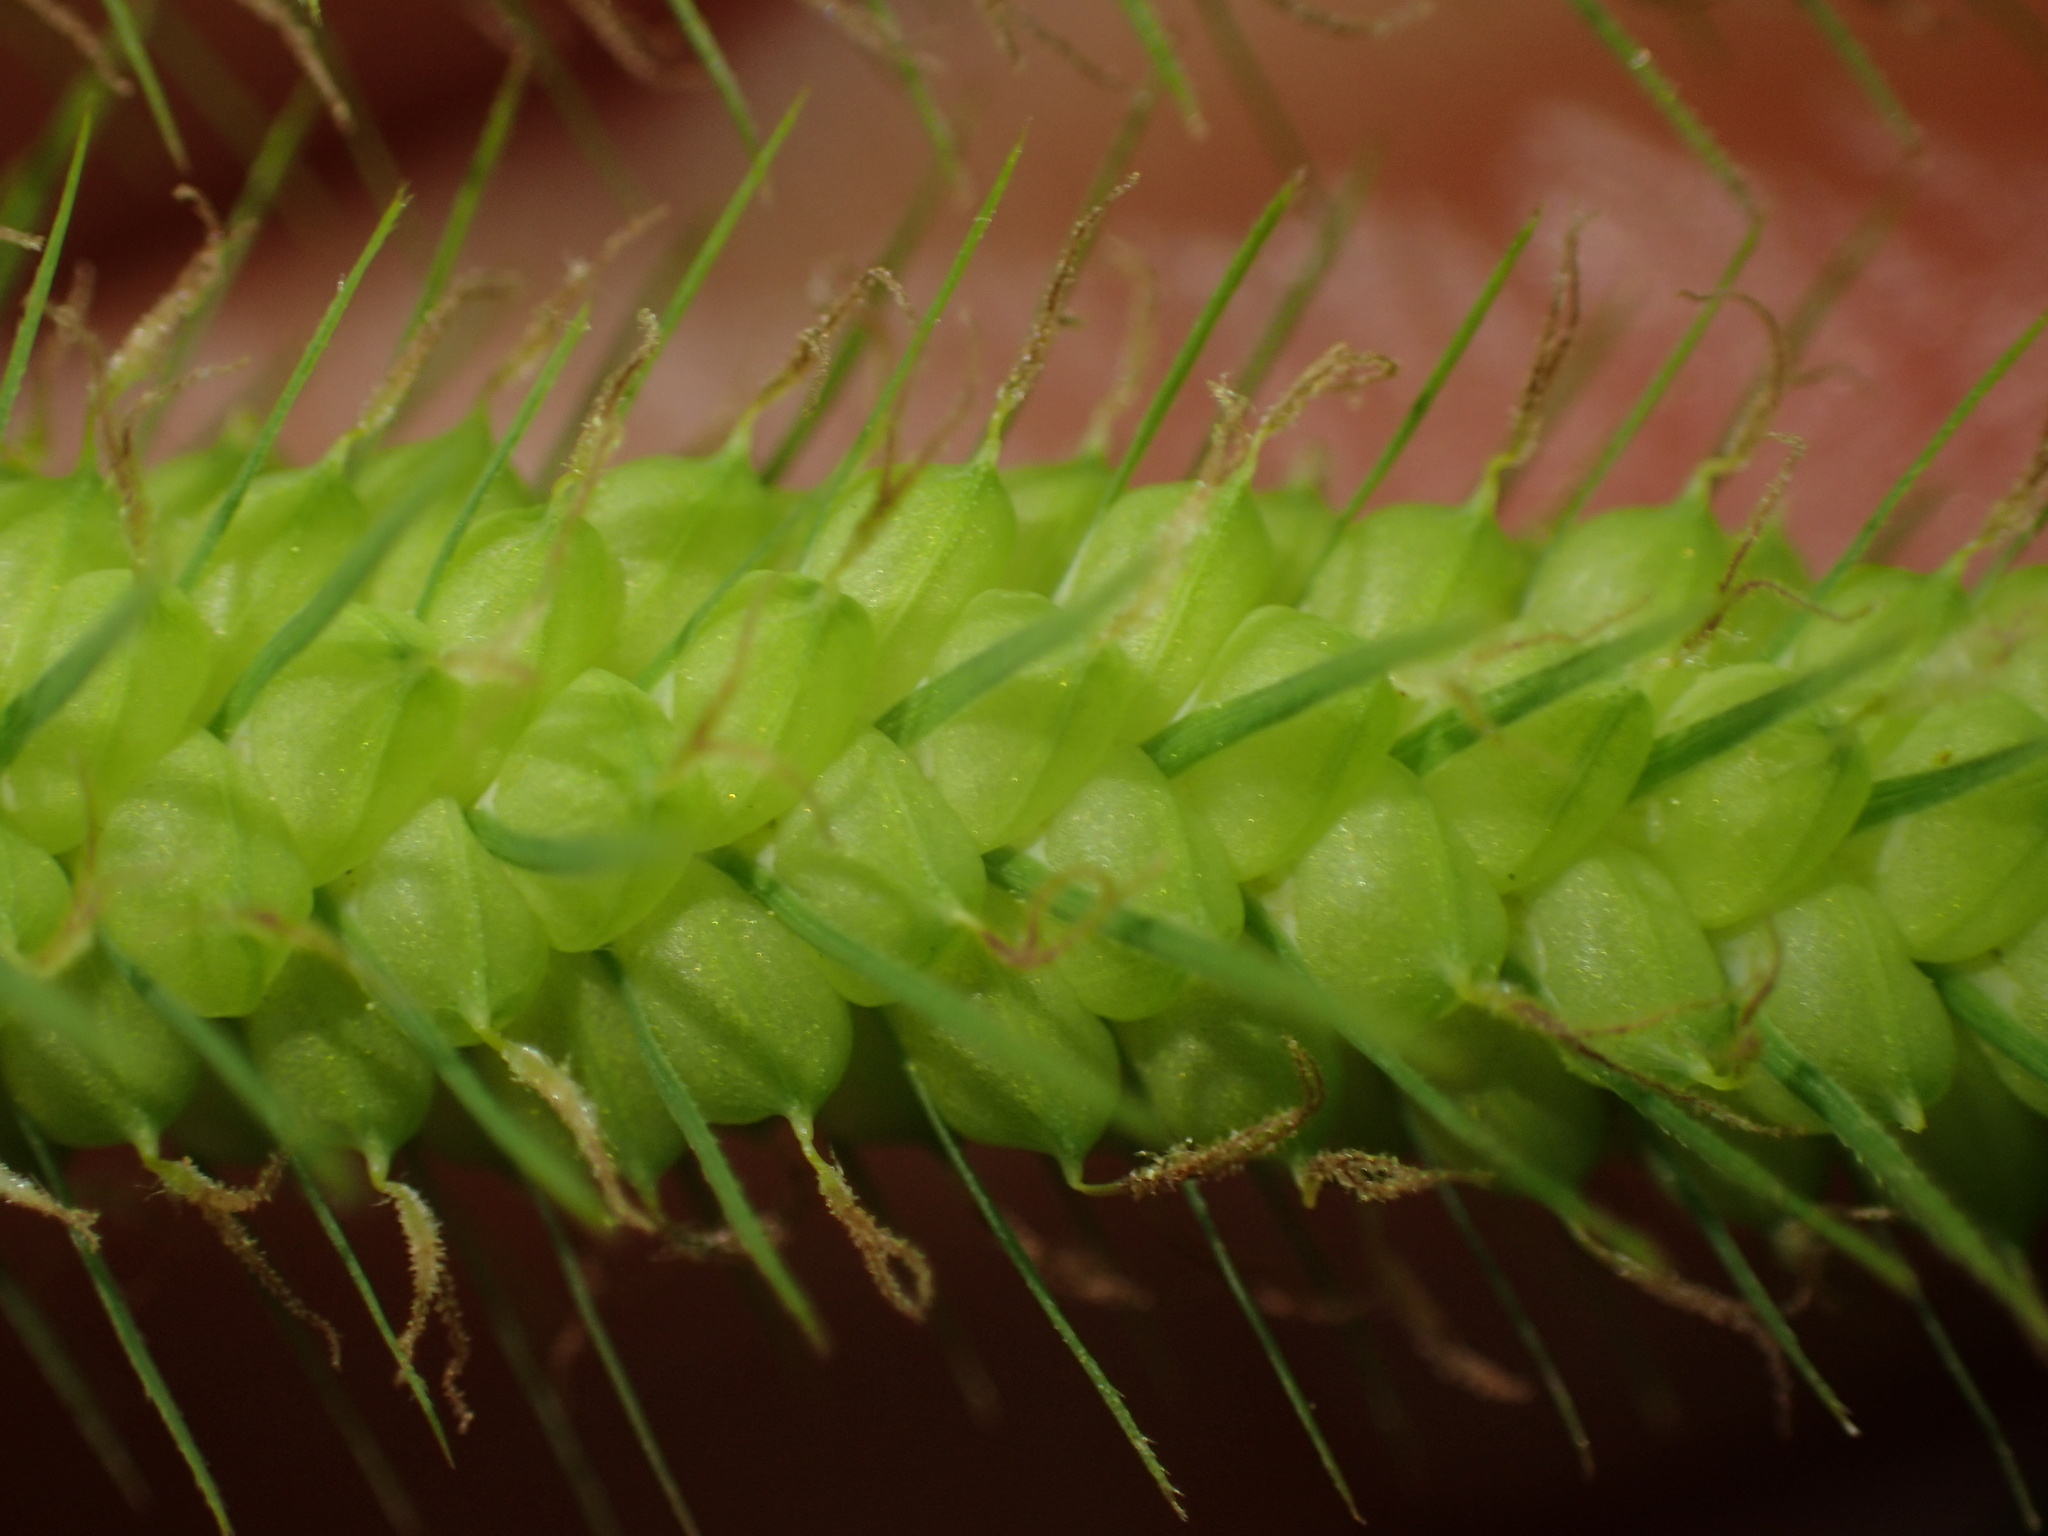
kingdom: Plantae
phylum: Tracheophyta
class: Liliopsida
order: Poales
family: Cyperaceae
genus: Carex
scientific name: Carex crinita
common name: Fringed sedge
